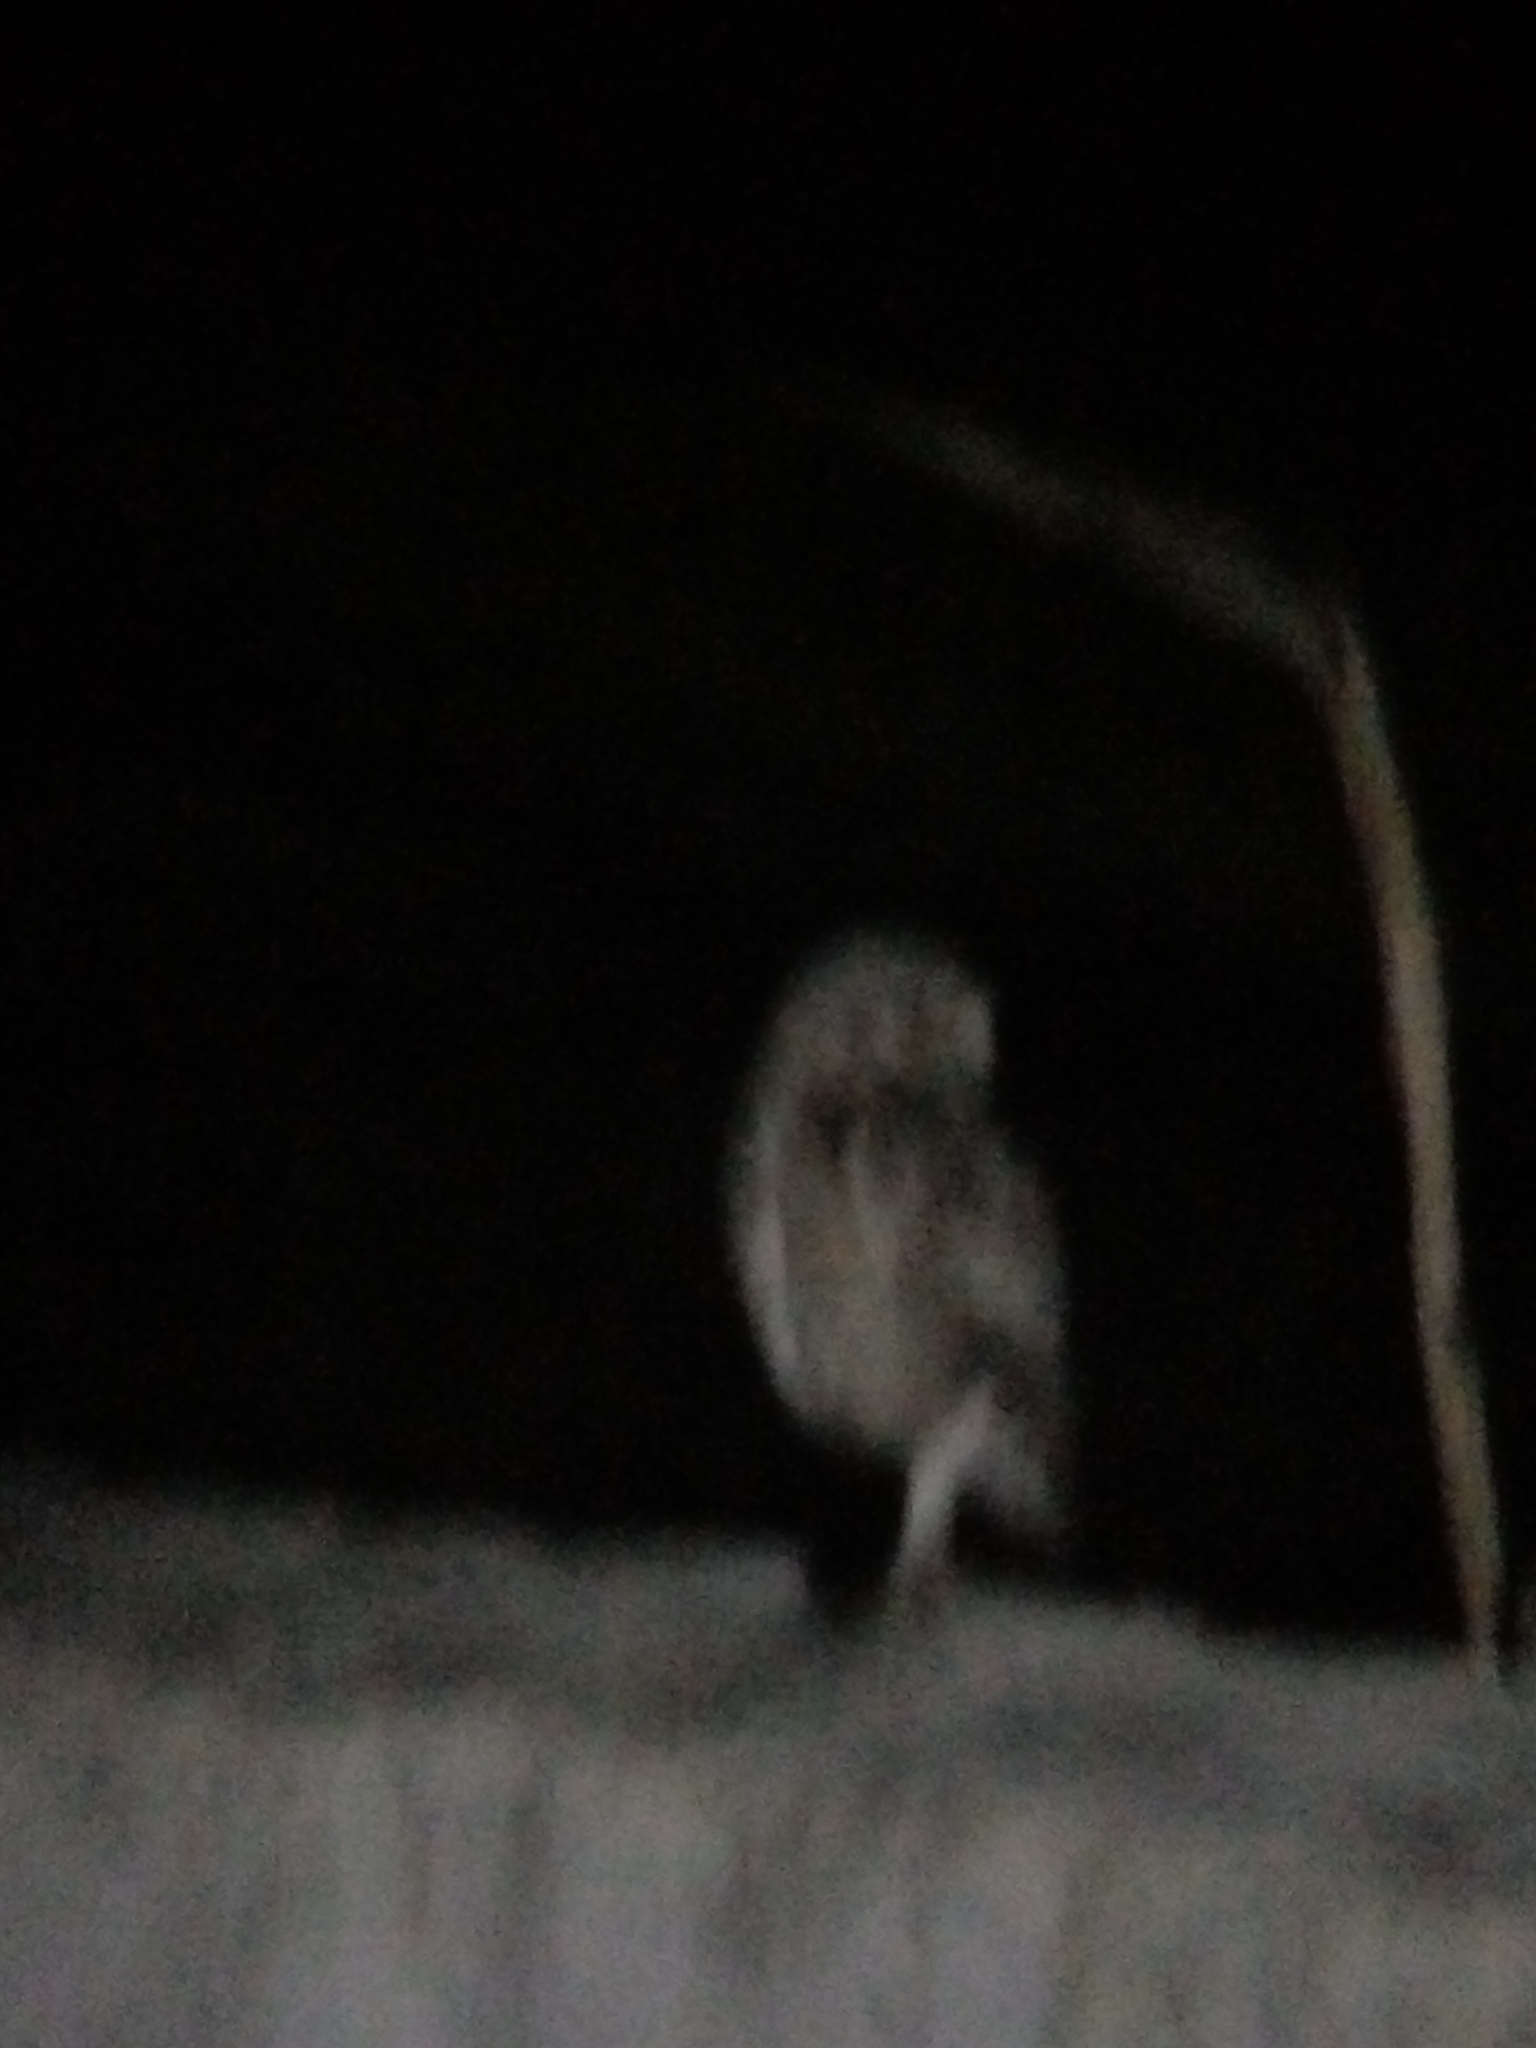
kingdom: Animalia
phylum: Chordata
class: Aves
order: Strigiformes
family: Strigidae
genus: Athene
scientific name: Athene cunicularia
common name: Burrowing owl
